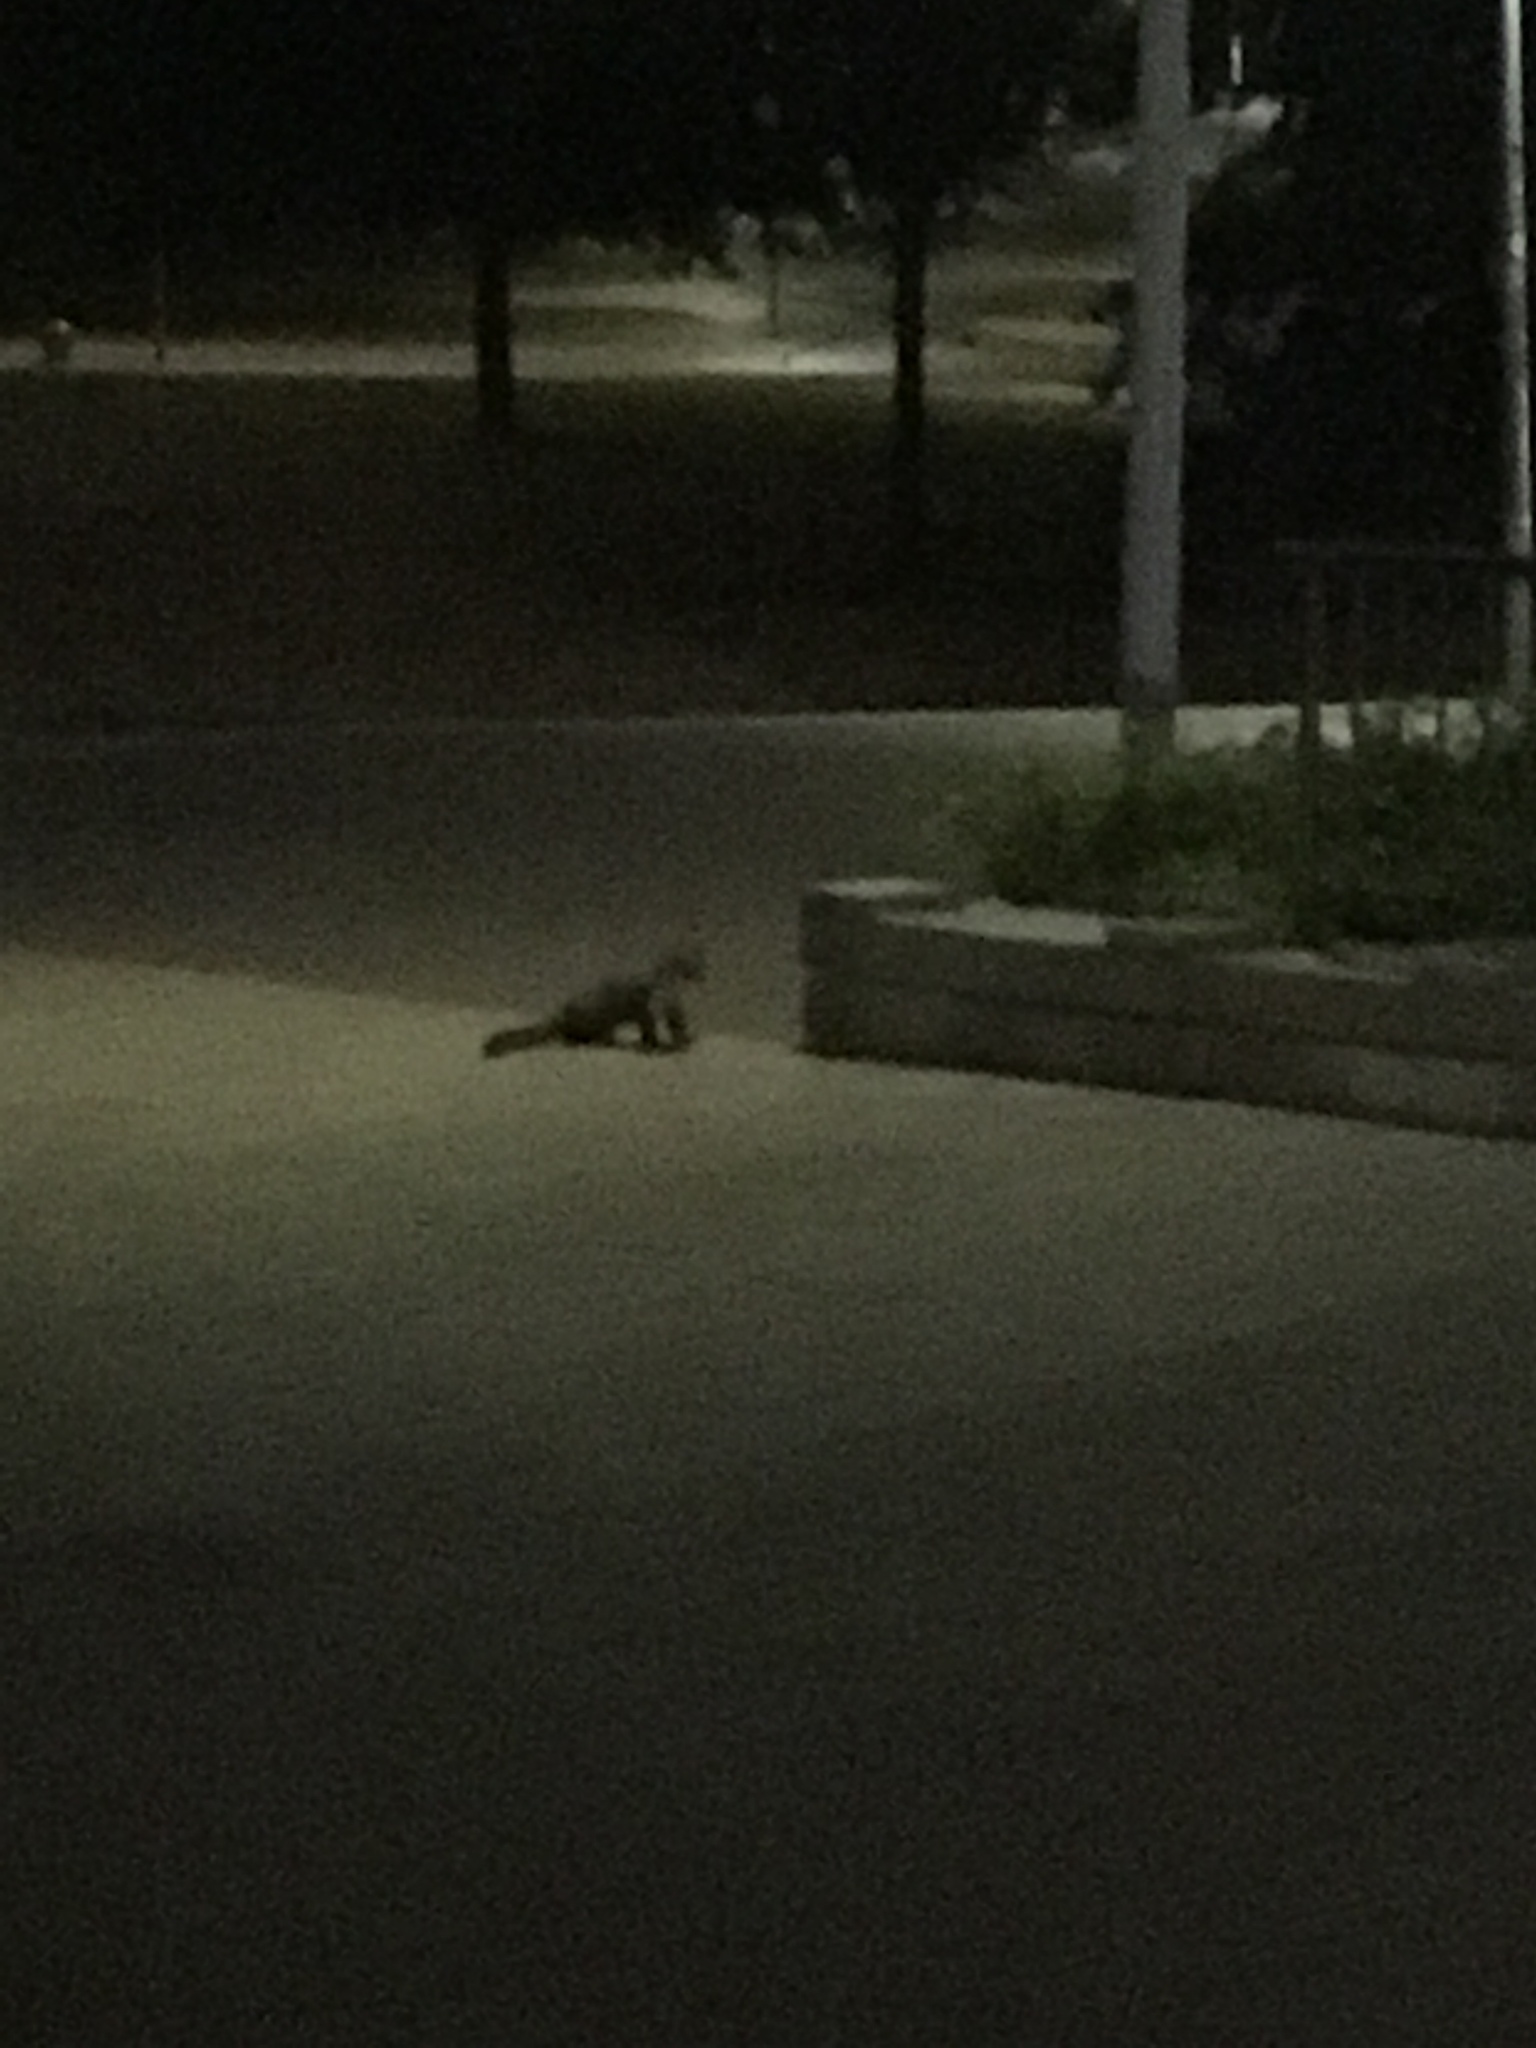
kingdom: Animalia
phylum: Chordata
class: Mammalia
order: Carnivora
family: Mustelidae
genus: Martes
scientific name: Martes foina
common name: Beech marten
